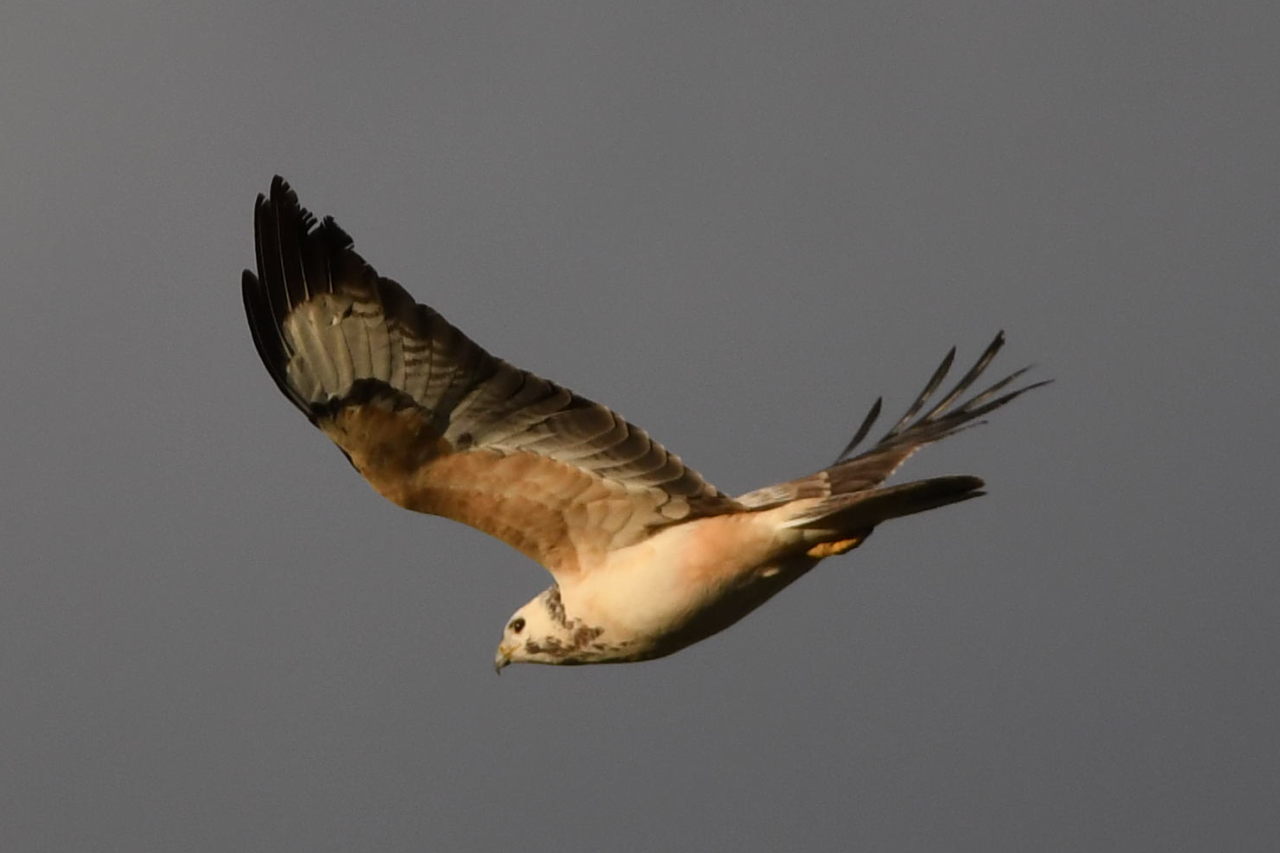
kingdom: Animalia
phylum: Chordata
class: Aves
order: Accipitriformes
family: Accipitridae
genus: Buteo
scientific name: Buteo buteo
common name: Common buzzard
